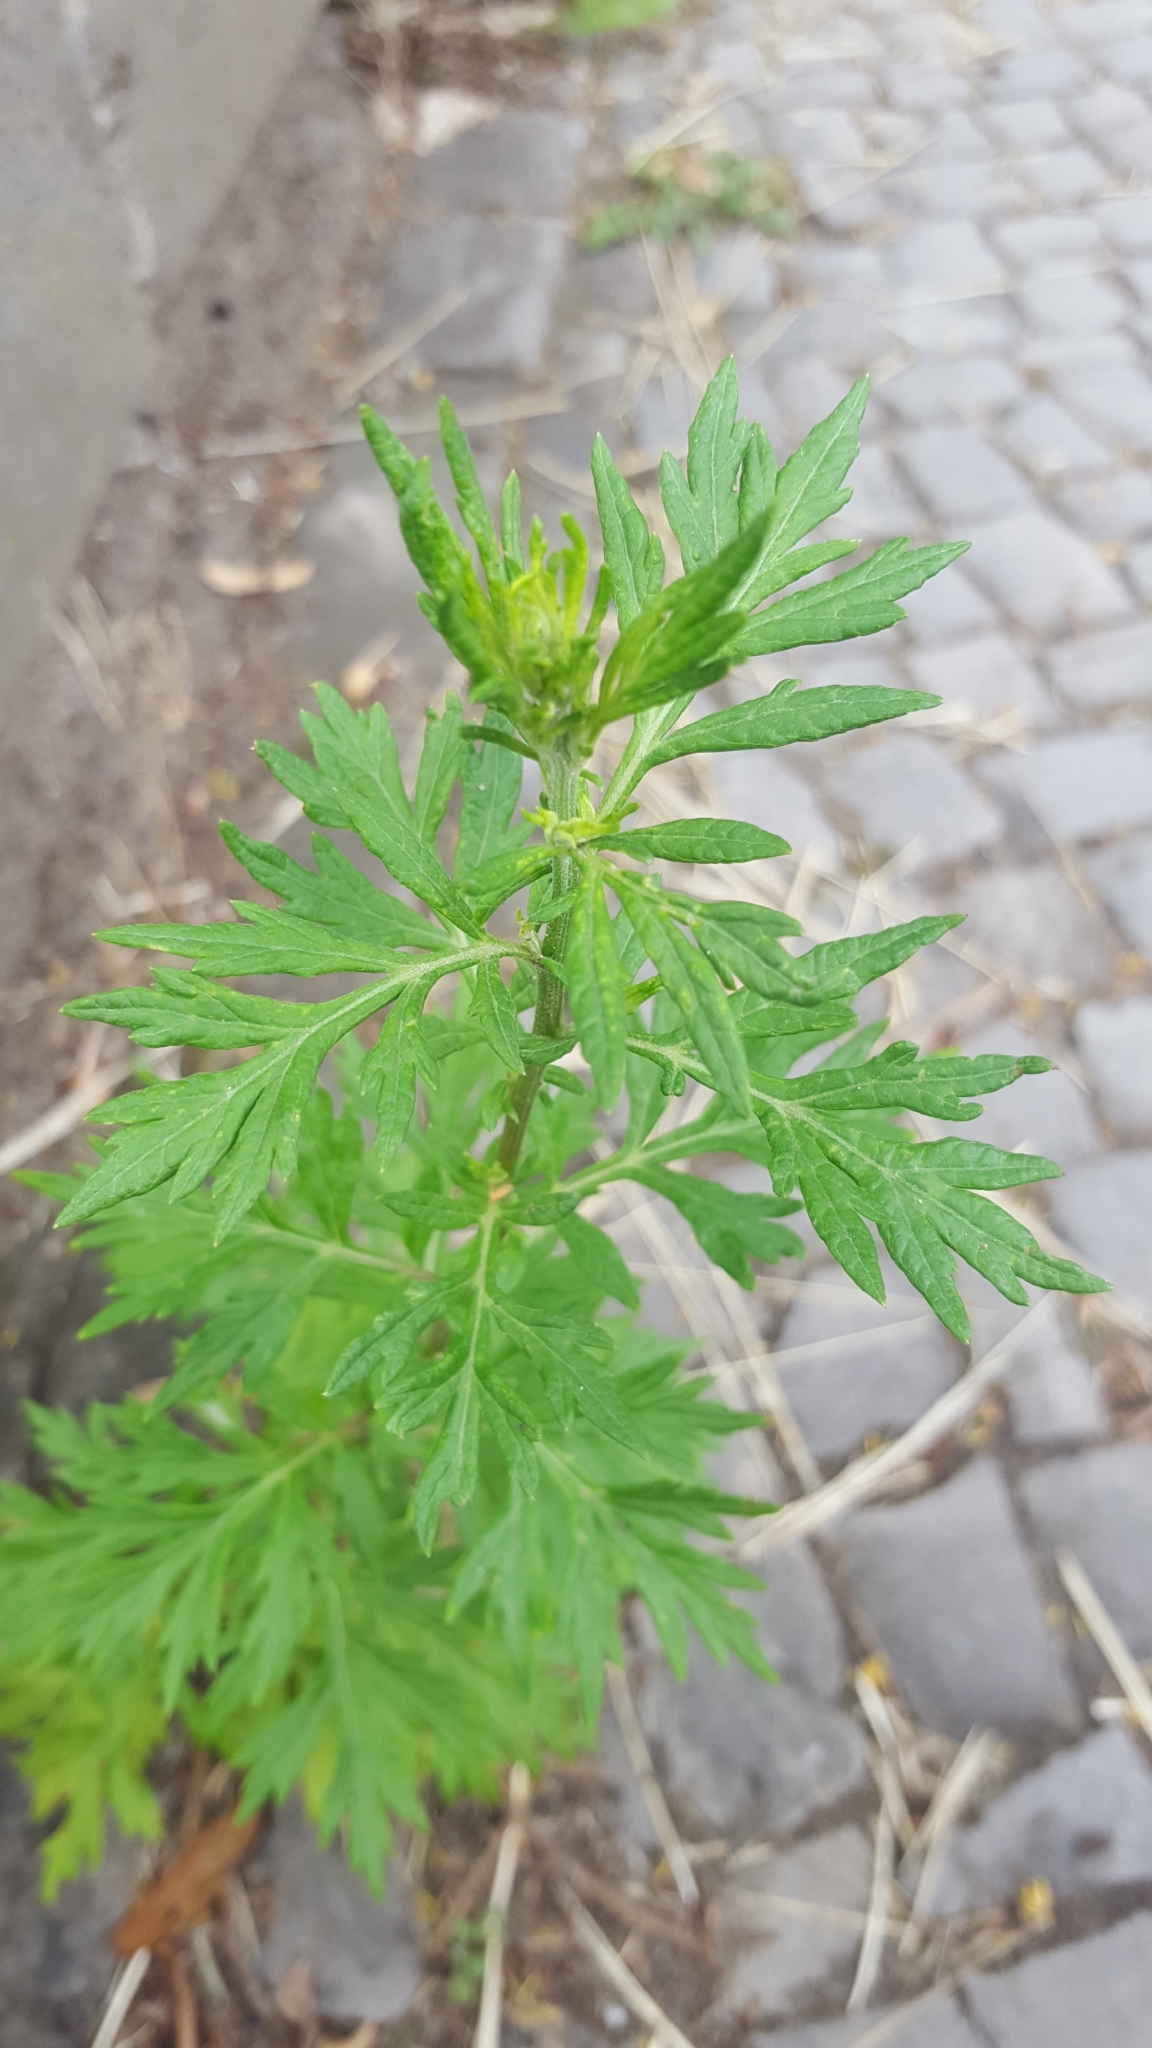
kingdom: Plantae
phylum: Tracheophyta
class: Magnoliopsida
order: Asterales
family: Asteraceae
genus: Artemisia
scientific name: Artemisia vulgaris
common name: Mugwort
